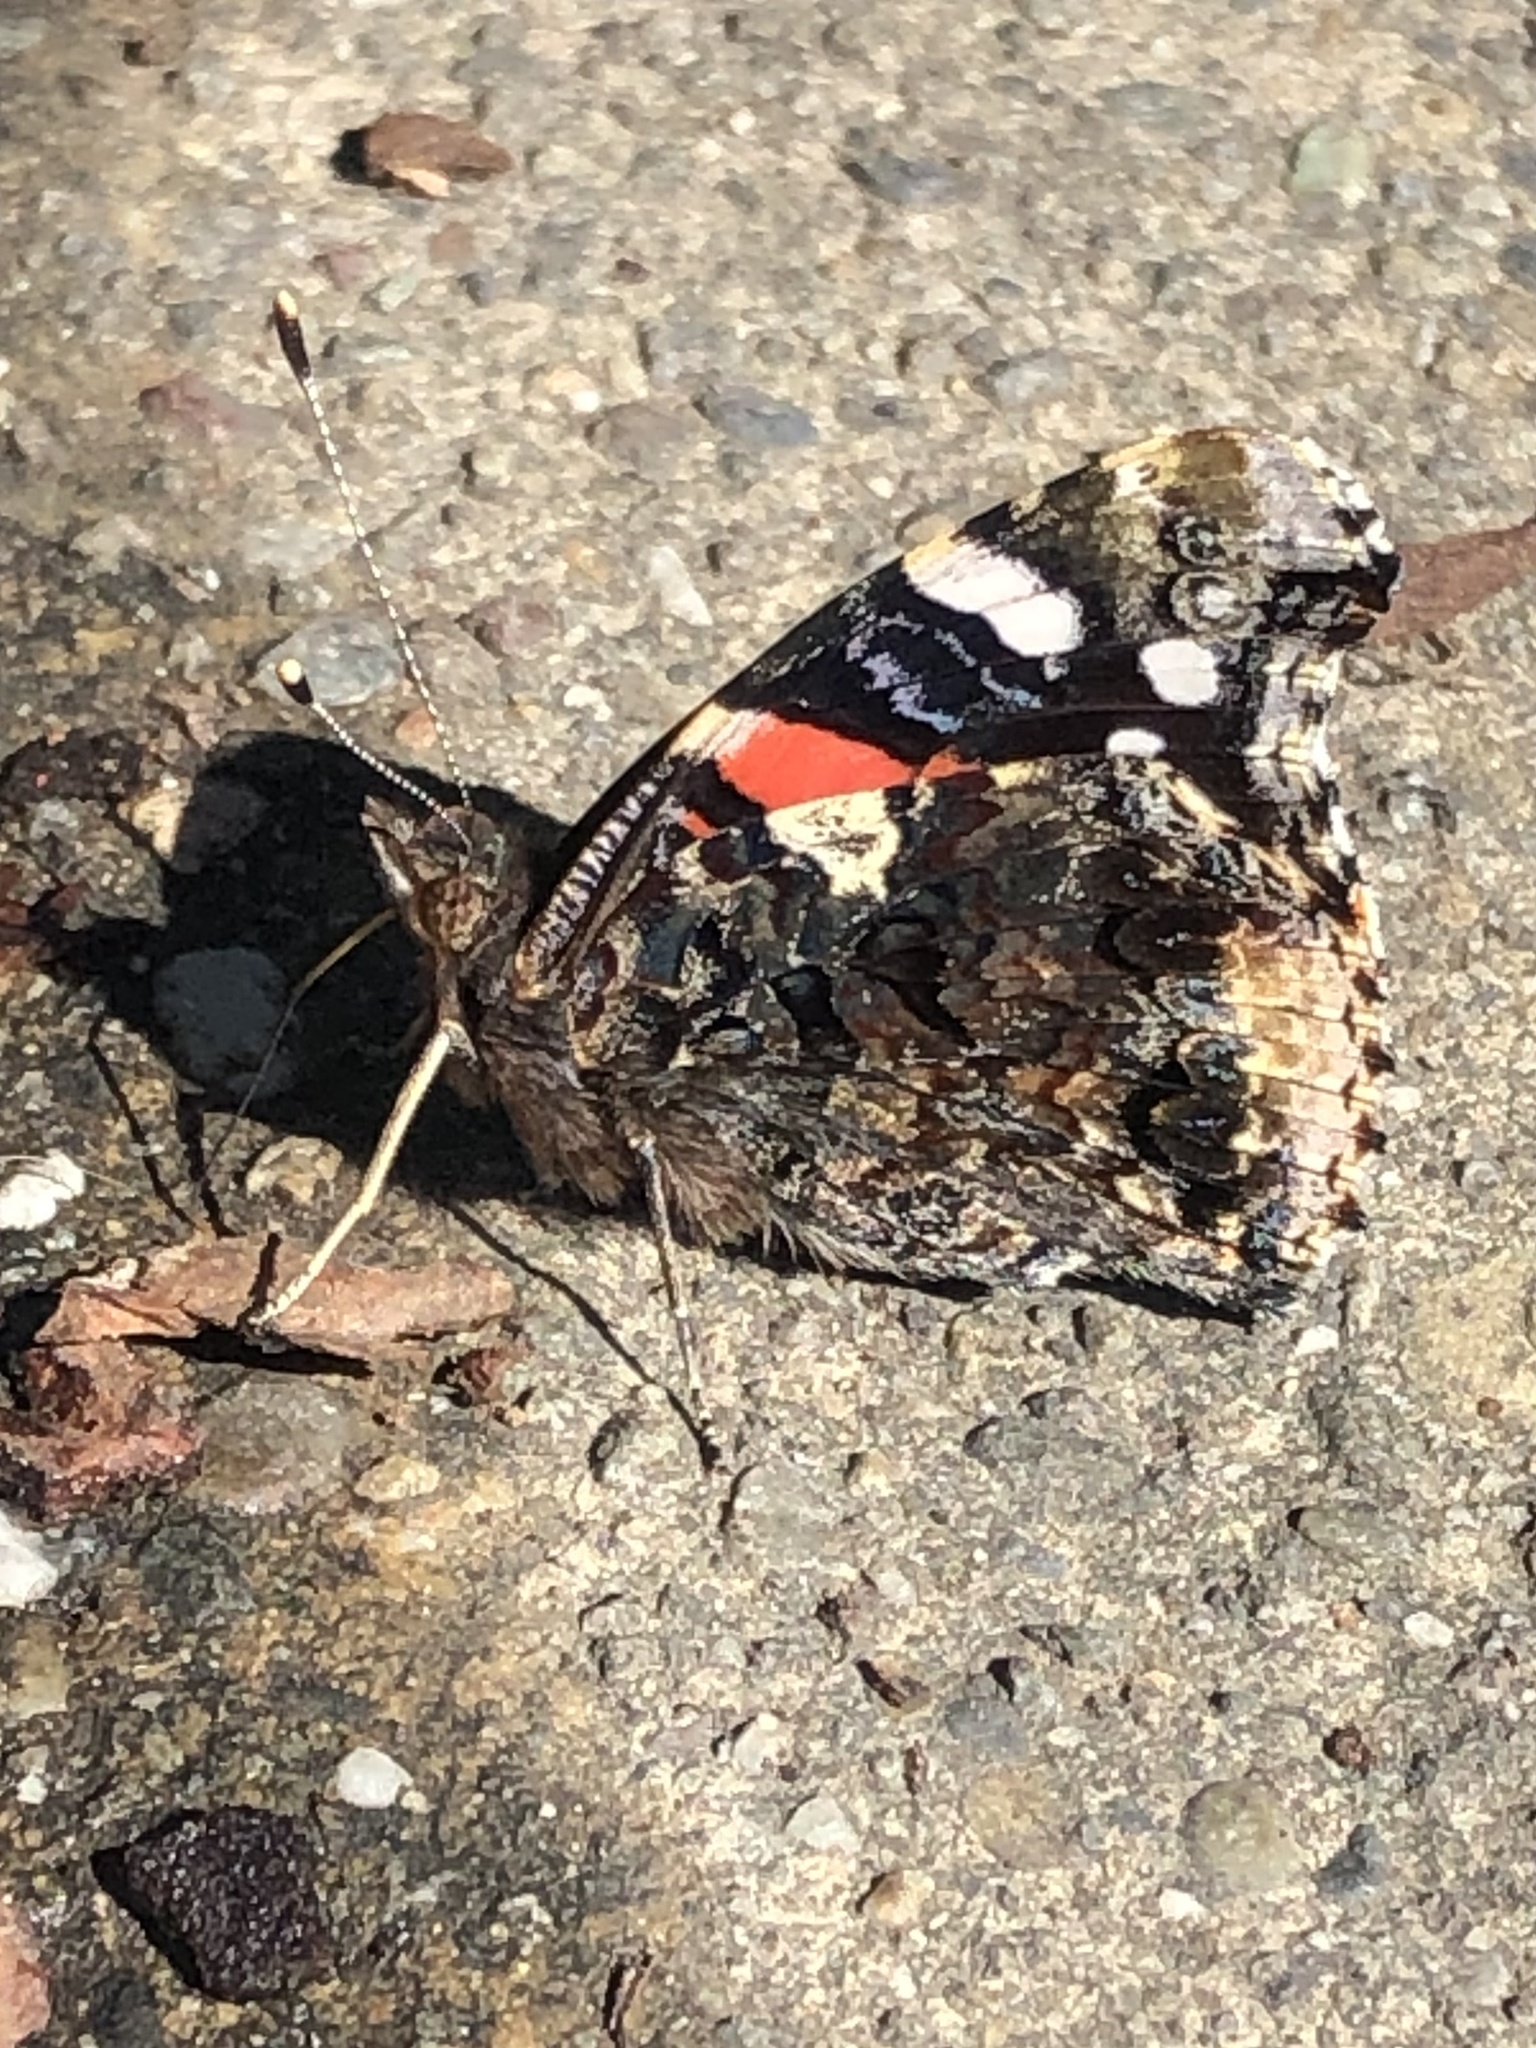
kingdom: Animalia
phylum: Arthropoda
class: Insecta
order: Lepidoptera
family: Nymphalidae
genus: Vanessa
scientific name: Vanessa atalanta
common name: Red admiral
